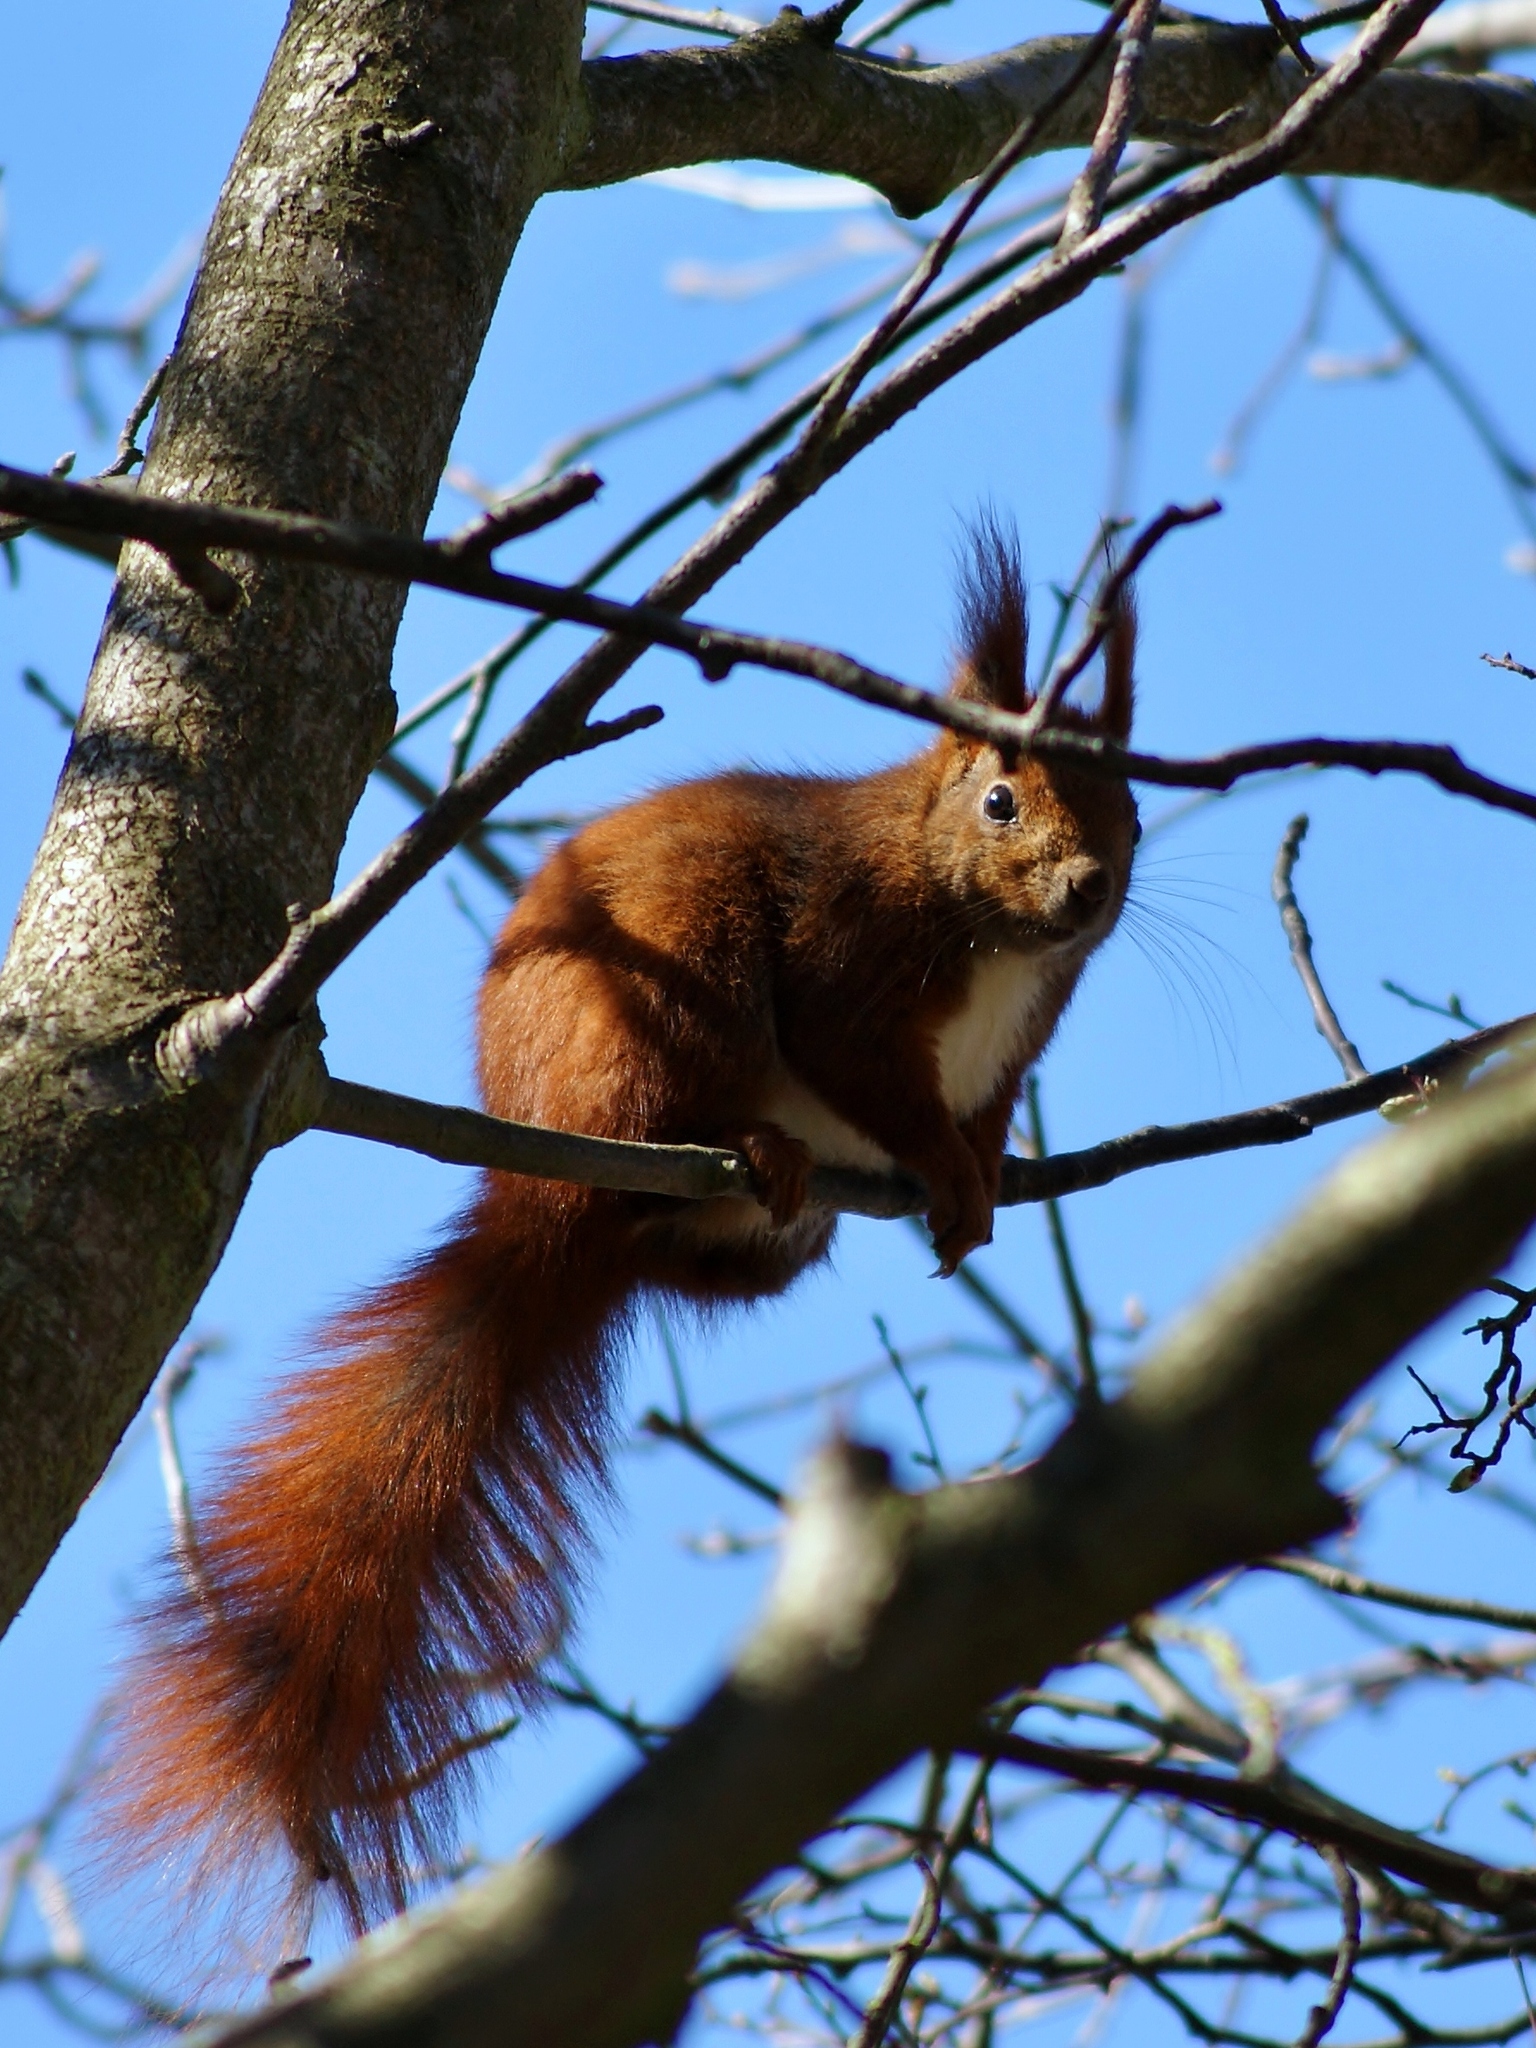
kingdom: Animalia
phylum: Chordata
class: Mammalia
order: Rodentia
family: Sciuridae
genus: Sciurus
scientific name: Sciurus vulgaris
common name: Eurasian red squirrel
